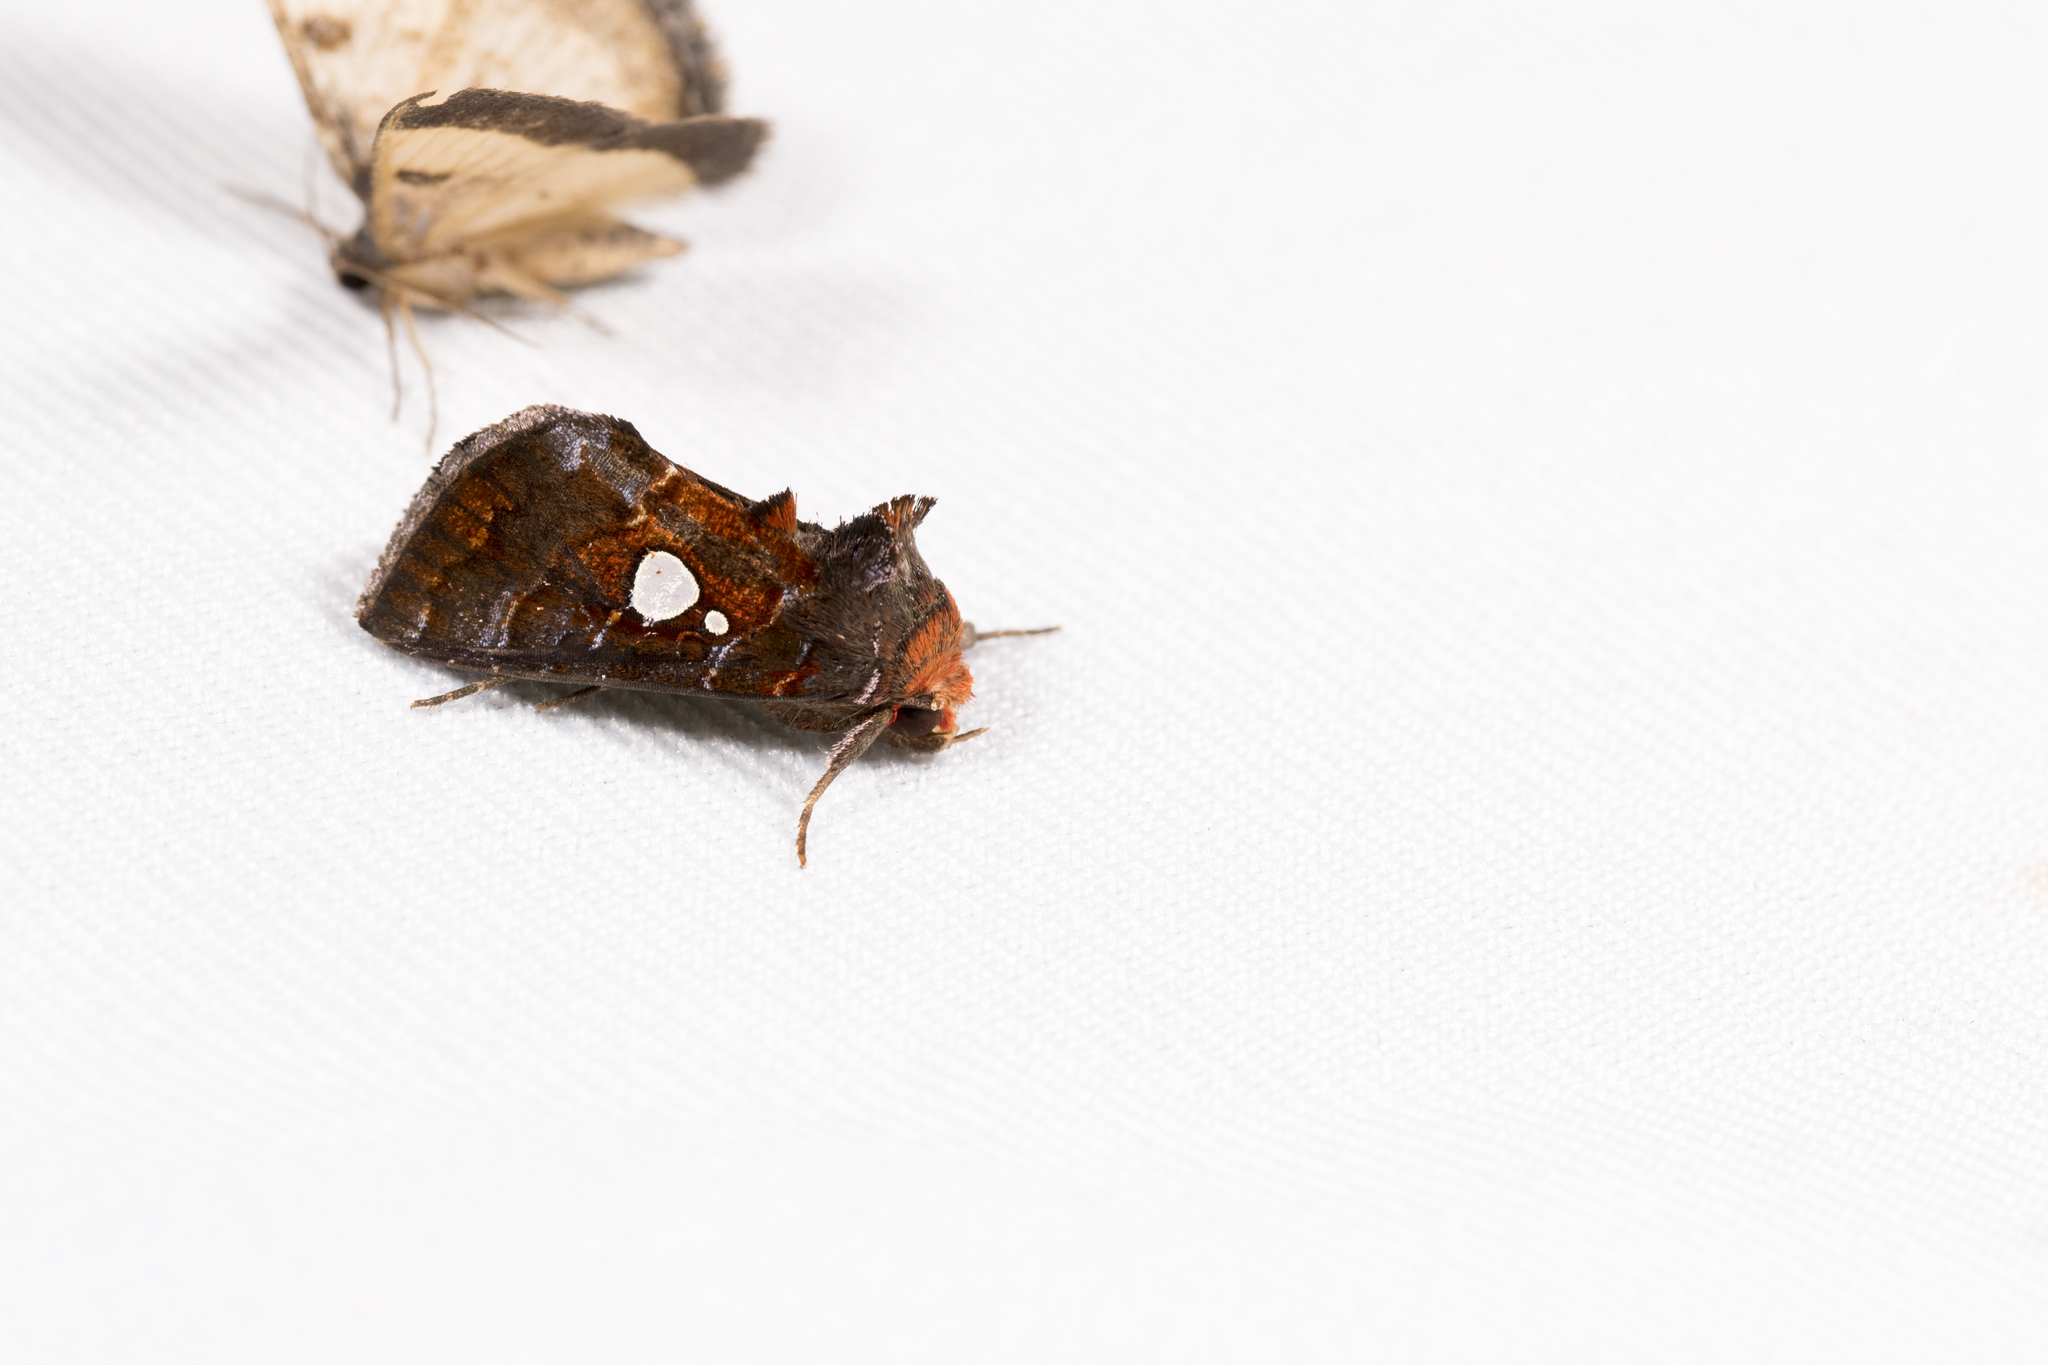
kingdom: Animalia
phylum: Arthropoda
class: Insecta
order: Lepidoptera
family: Noctuidae
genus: Extremoplusia
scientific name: Extremoplusia megaloba
